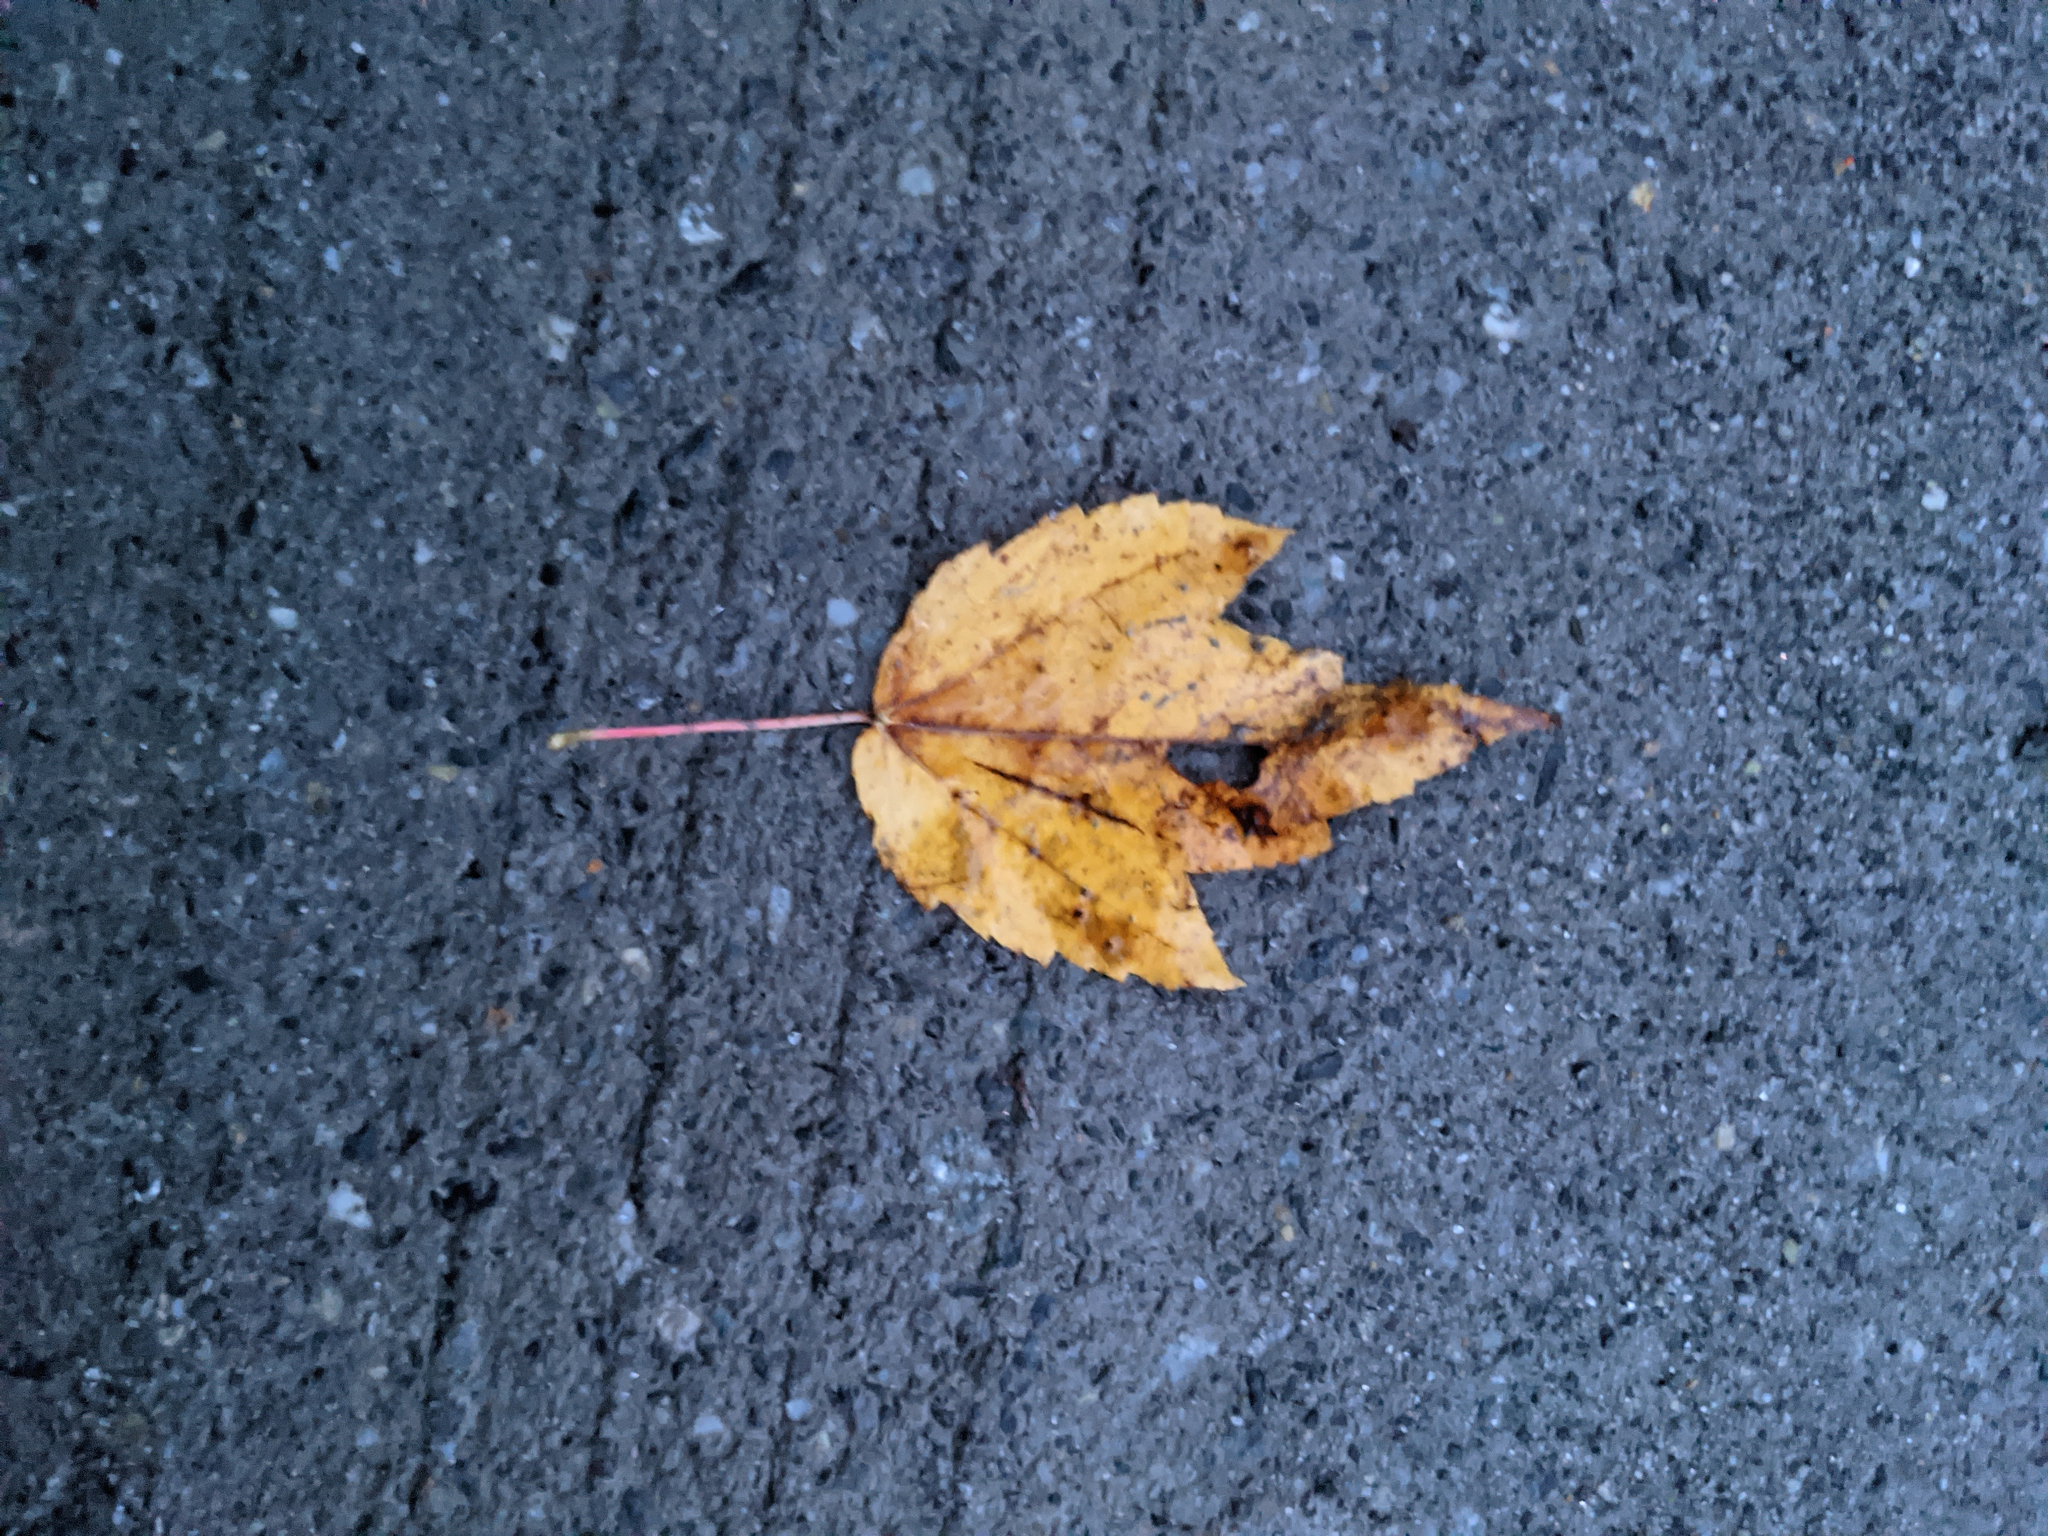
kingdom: Plantae
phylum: Tracheophyta
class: Magnoliopsida
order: Sapindales
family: Sapindaceae
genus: Acer
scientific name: Acer rubrum
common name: Red maple
